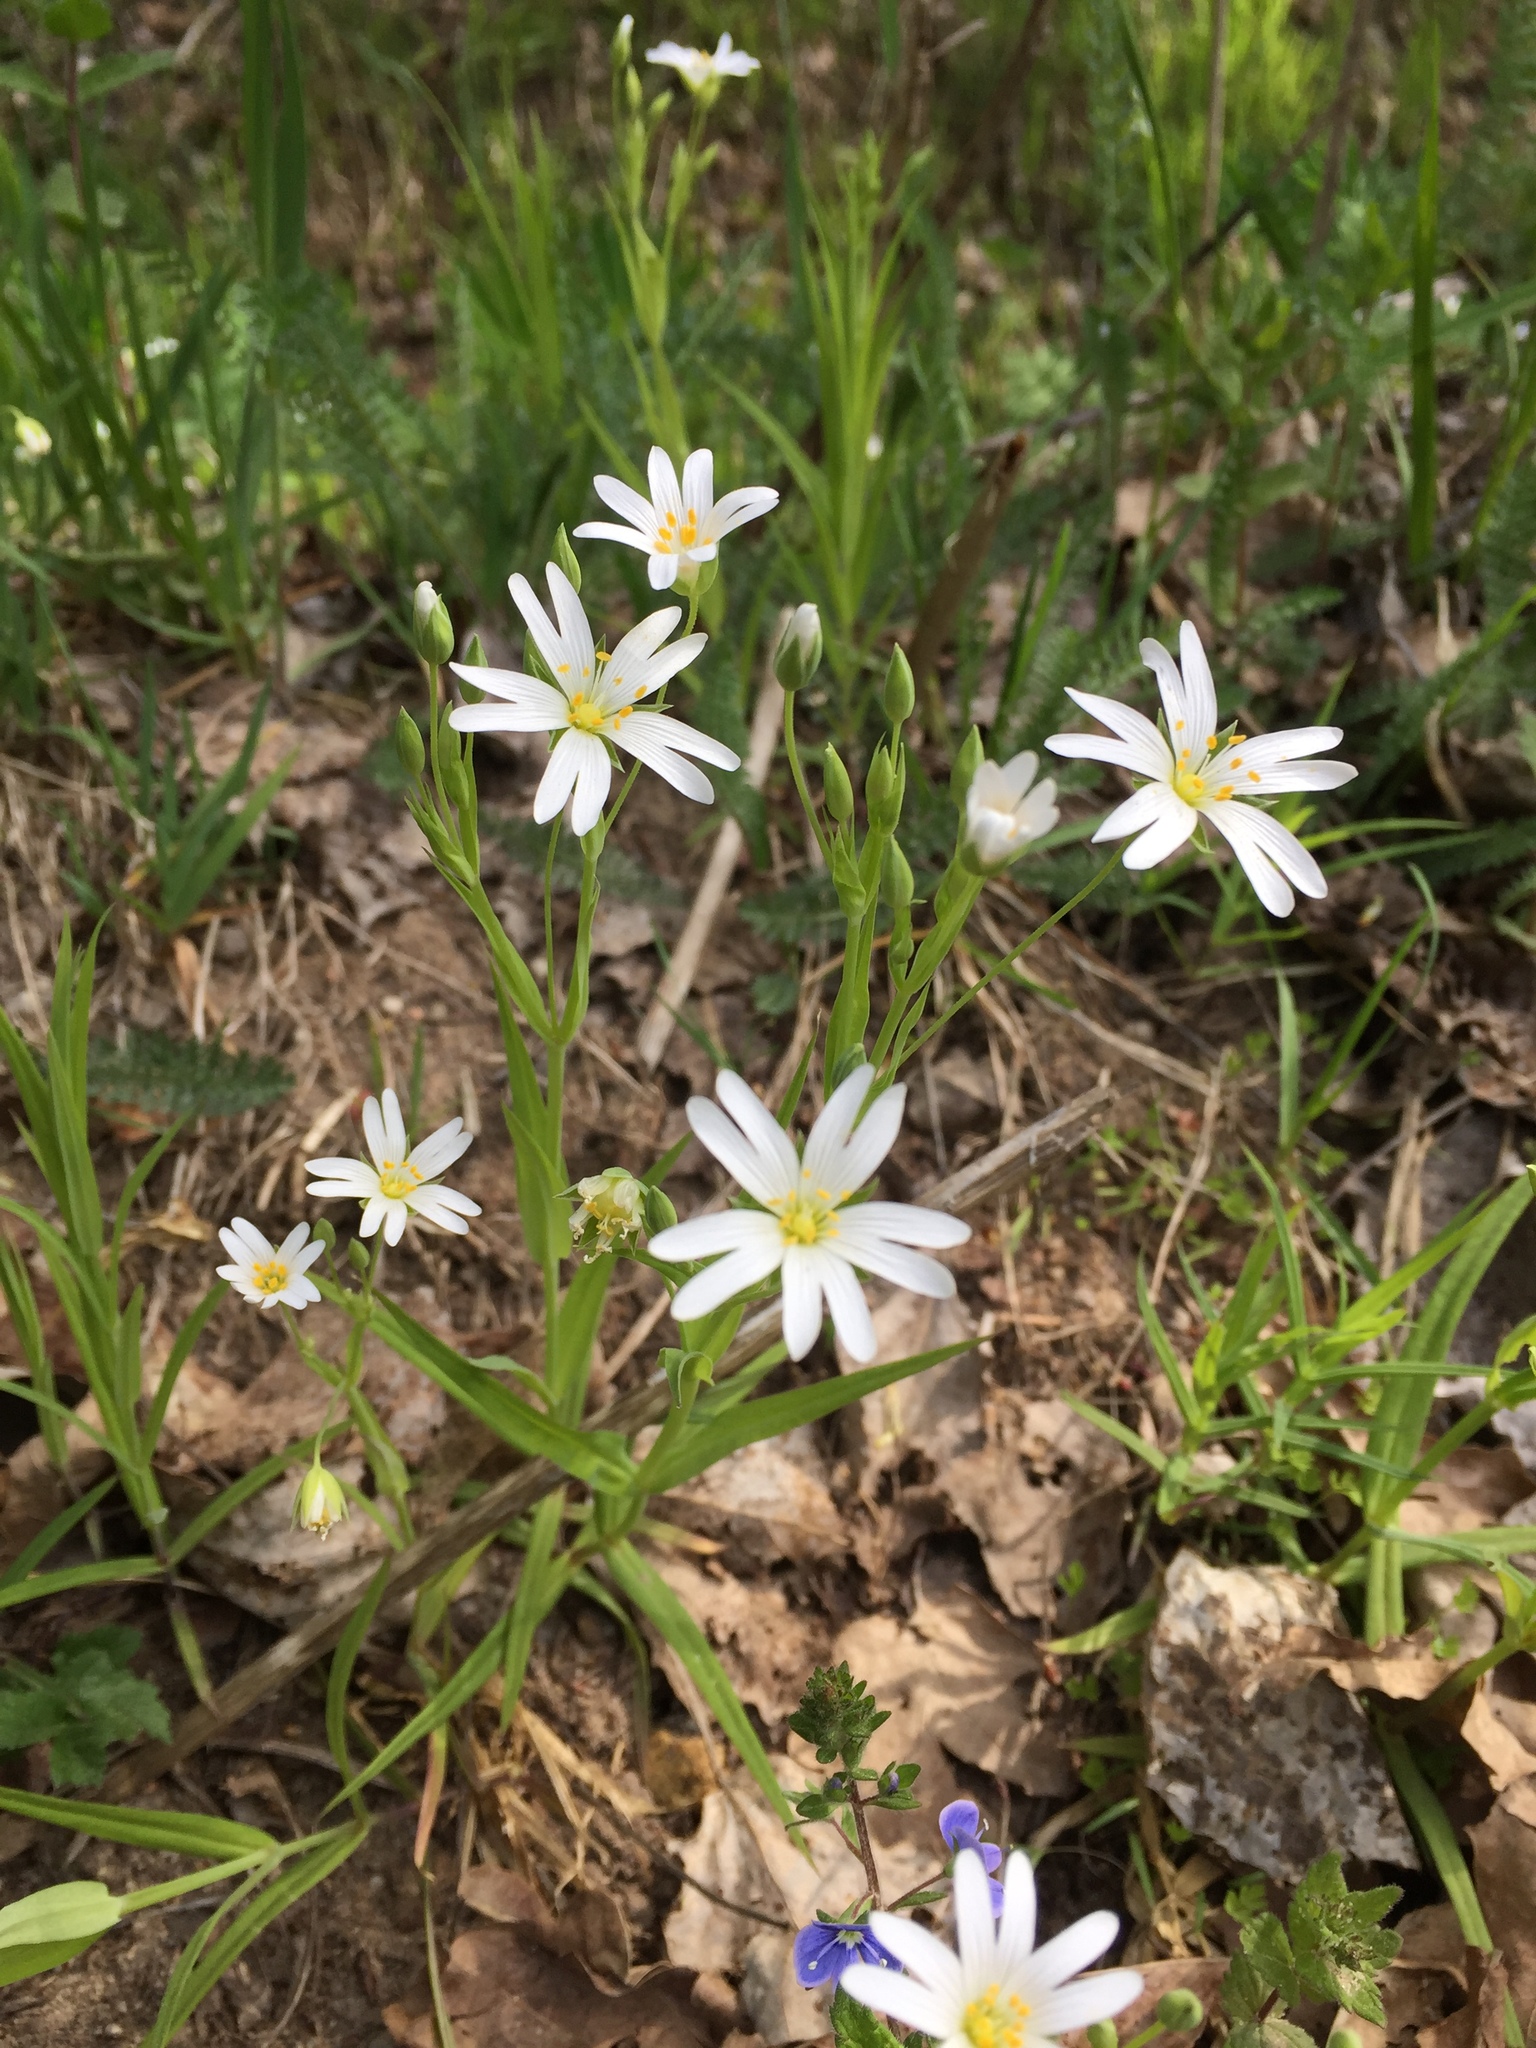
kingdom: Plantae
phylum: Tracheophyta
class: Magnoliopsida
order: Caryophyllales
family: Caryophyllaceae
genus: Rabelera
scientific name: Rabelera holostea
